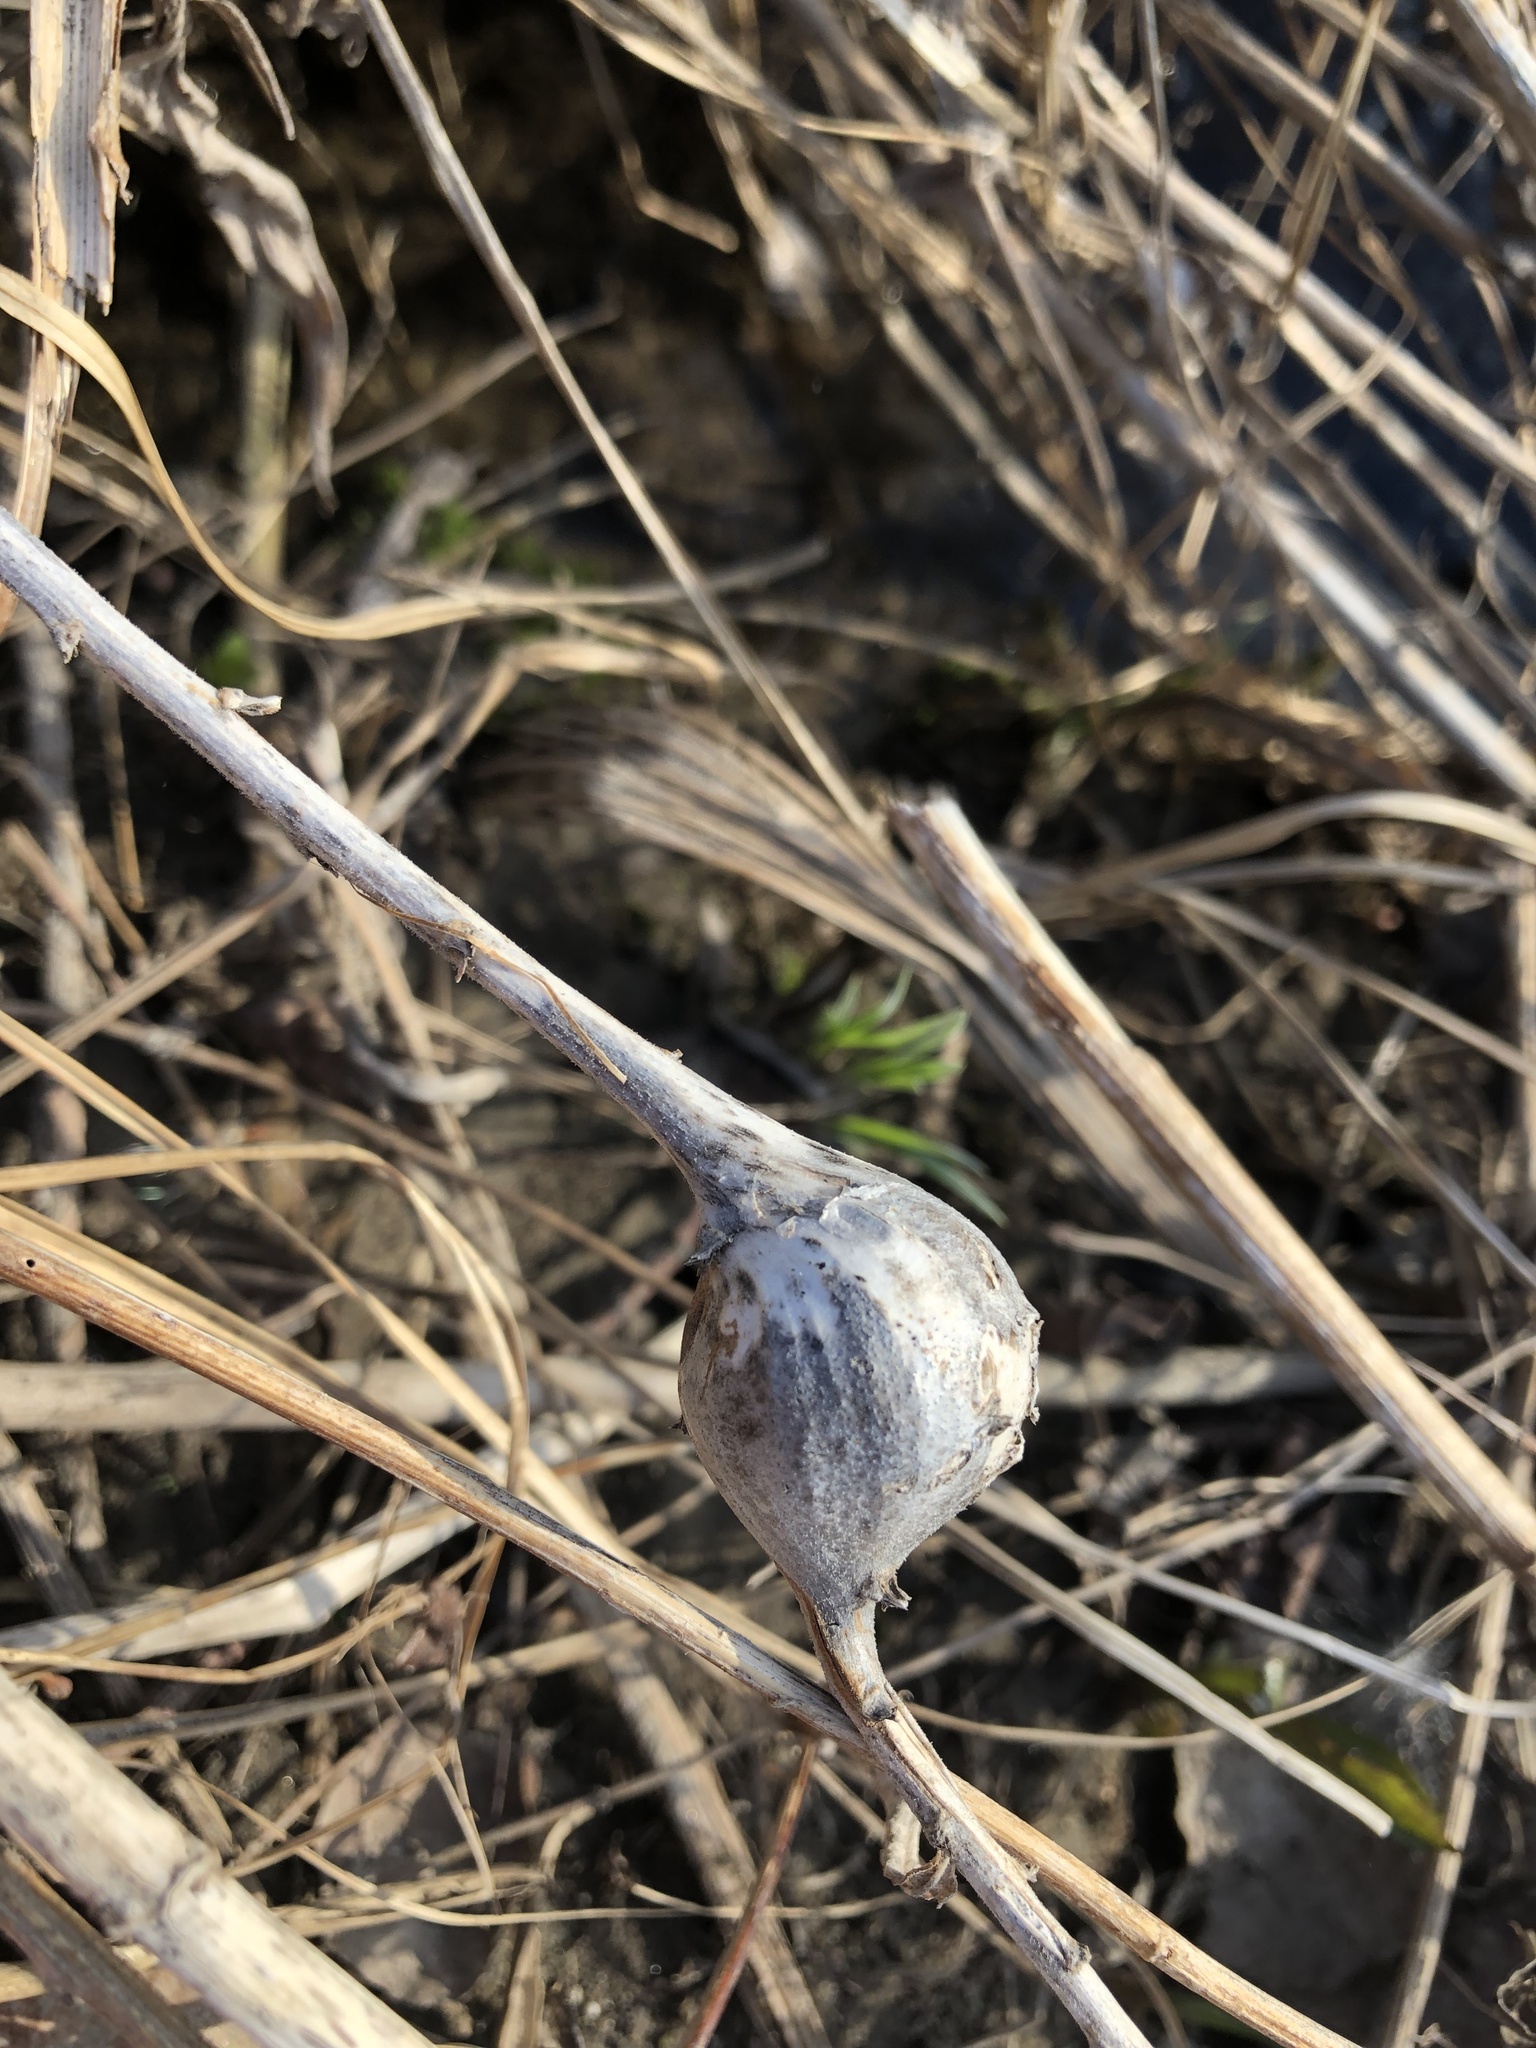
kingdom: Animalia
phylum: Arthropoda
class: Insecta
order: Diptera
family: Tephritidae
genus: Eurosta
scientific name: Eurosta solidaginis
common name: Goldenrod gall fly
